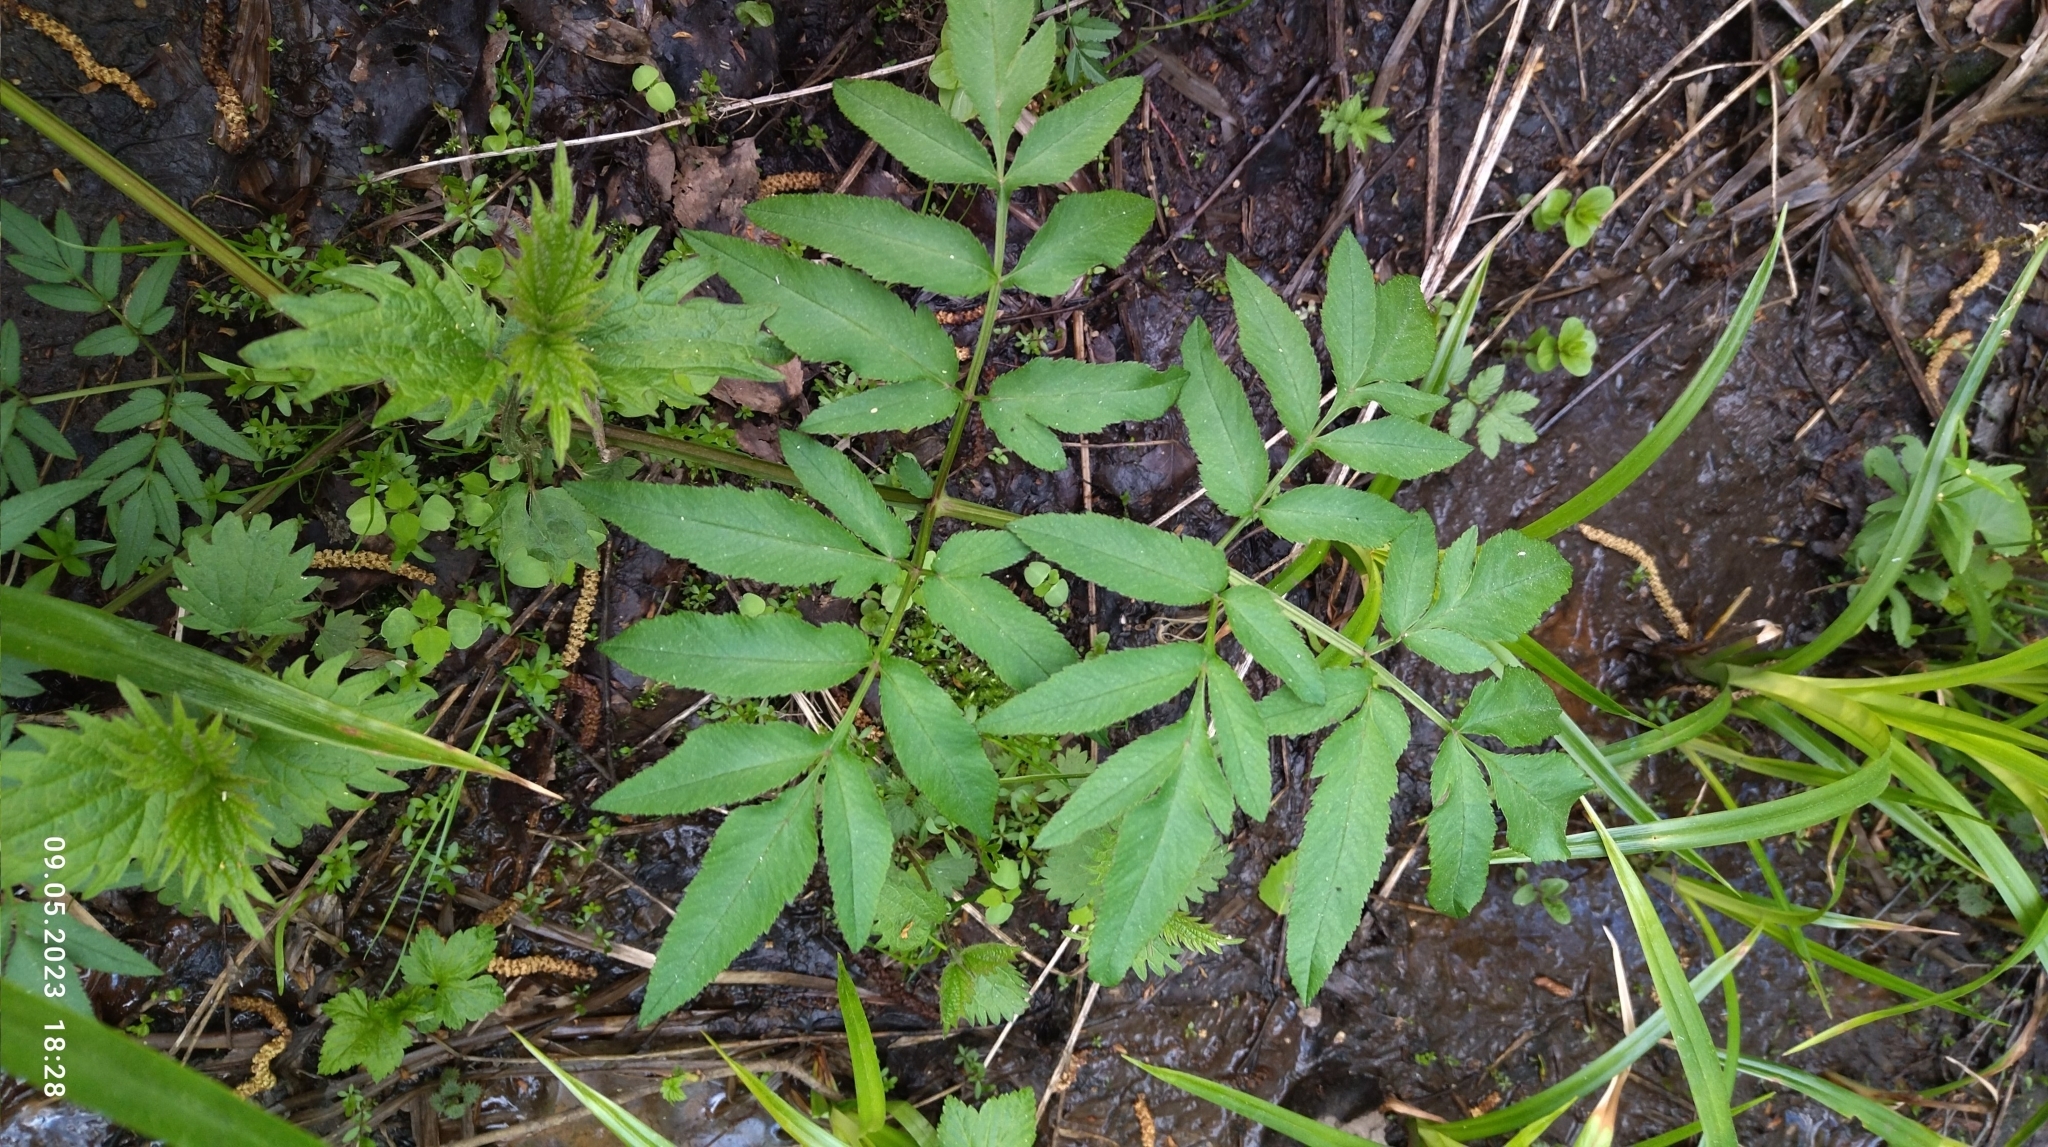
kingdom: Plantae
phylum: Tracheophyta
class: Magnoliopsida
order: Apiales
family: Apiaceae
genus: Angelica
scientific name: Angelica sylvestris
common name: Wild angelica
